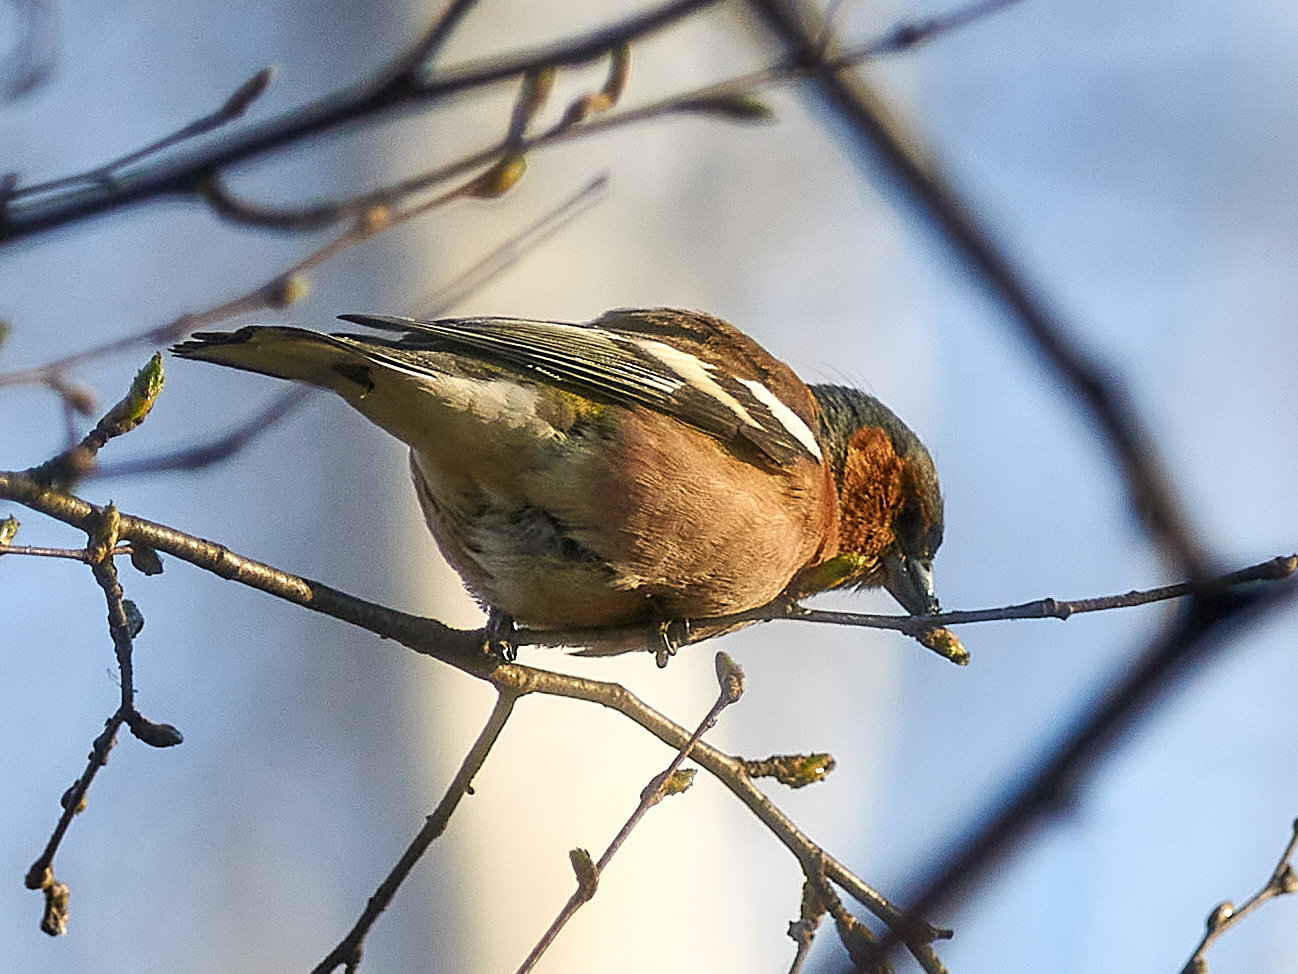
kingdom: Animalia
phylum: Chordata
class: Aves
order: Passeriformes
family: Fringillidae
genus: Fringilla
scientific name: Fringilla coelebs
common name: Common chaffinch
